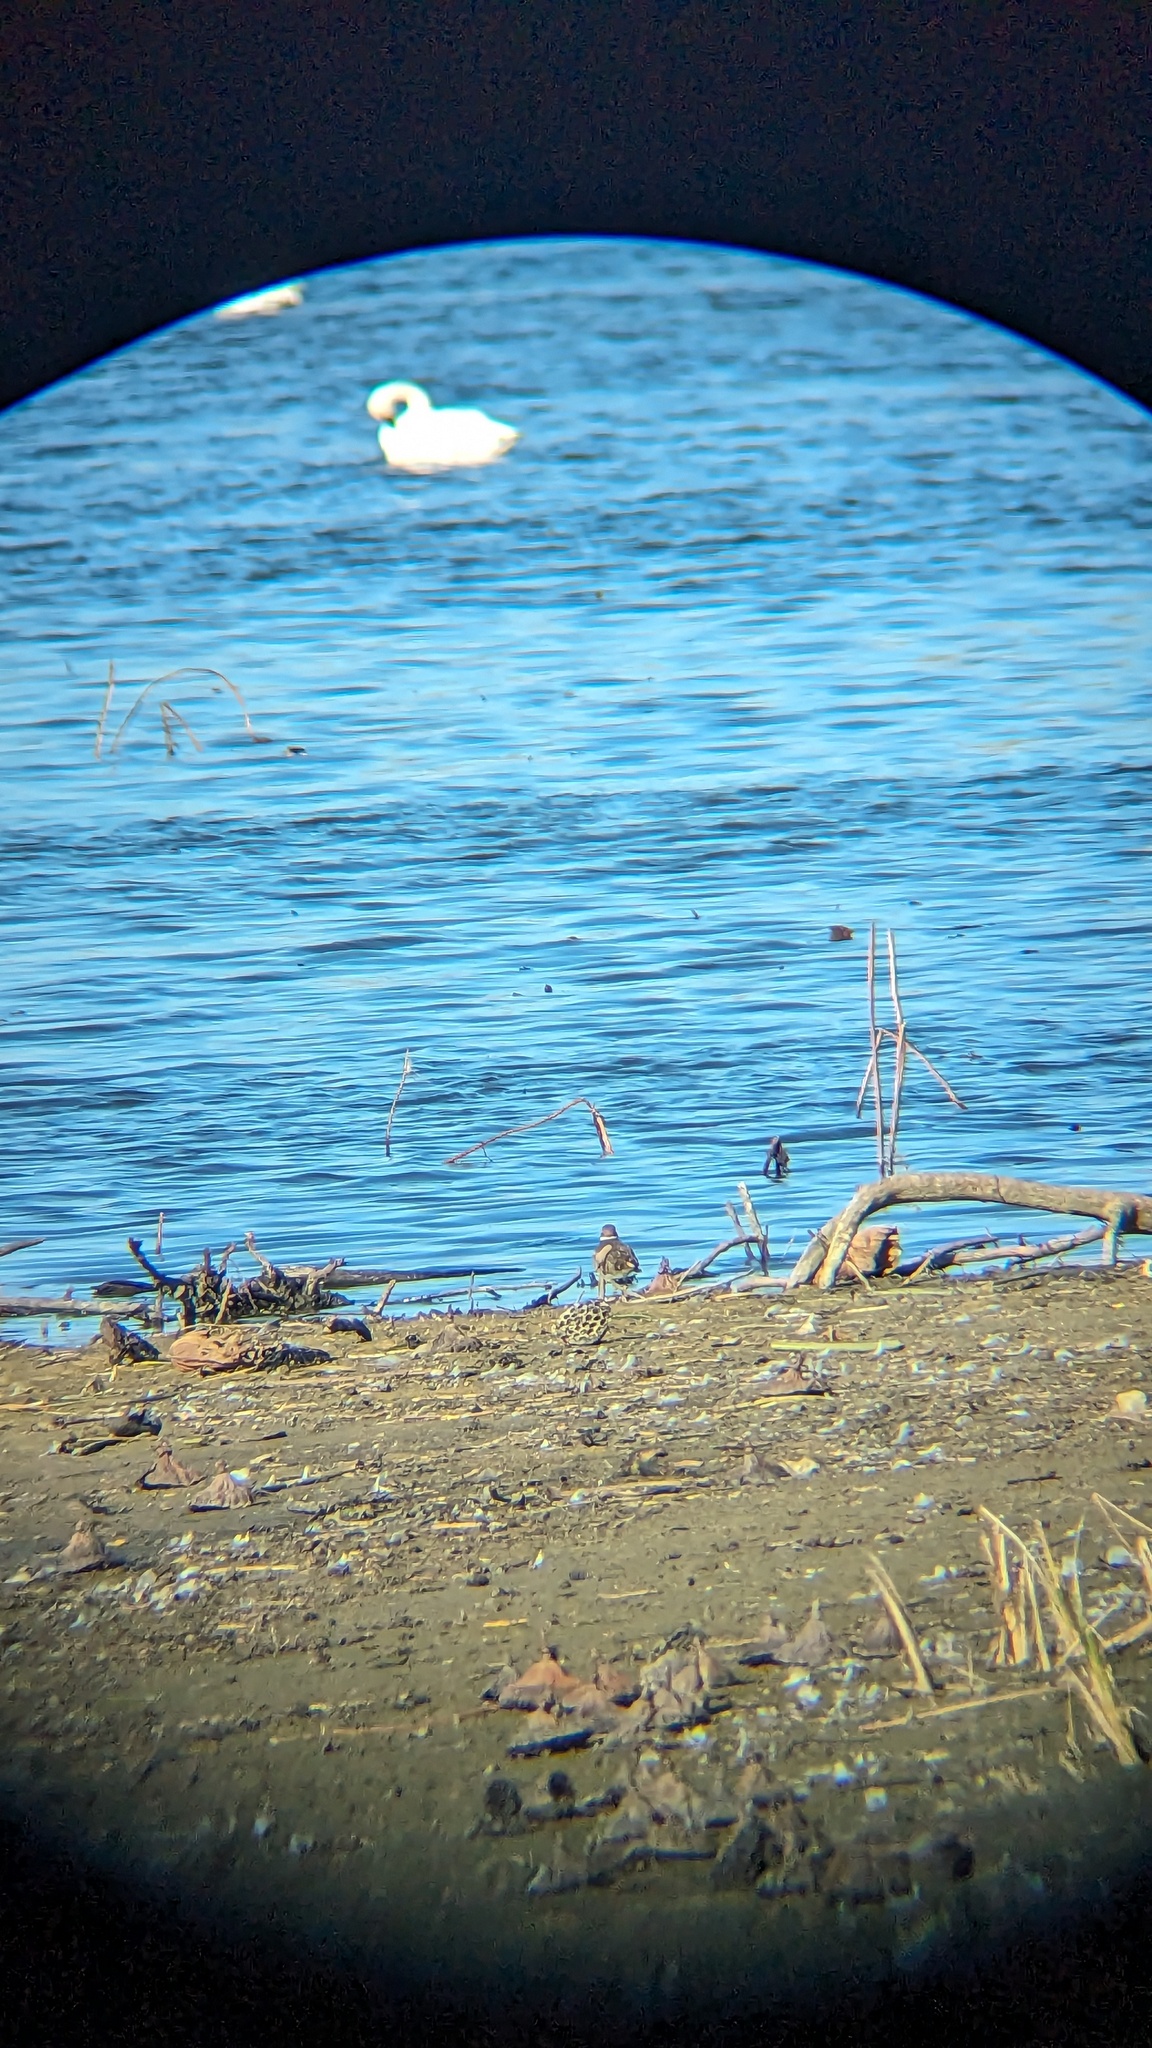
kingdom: Animalia
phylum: Chordata
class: Aves
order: Charadriiformes
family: Charadriidae
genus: Charadrius
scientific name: Charadrius vociferus
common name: Killdeer
